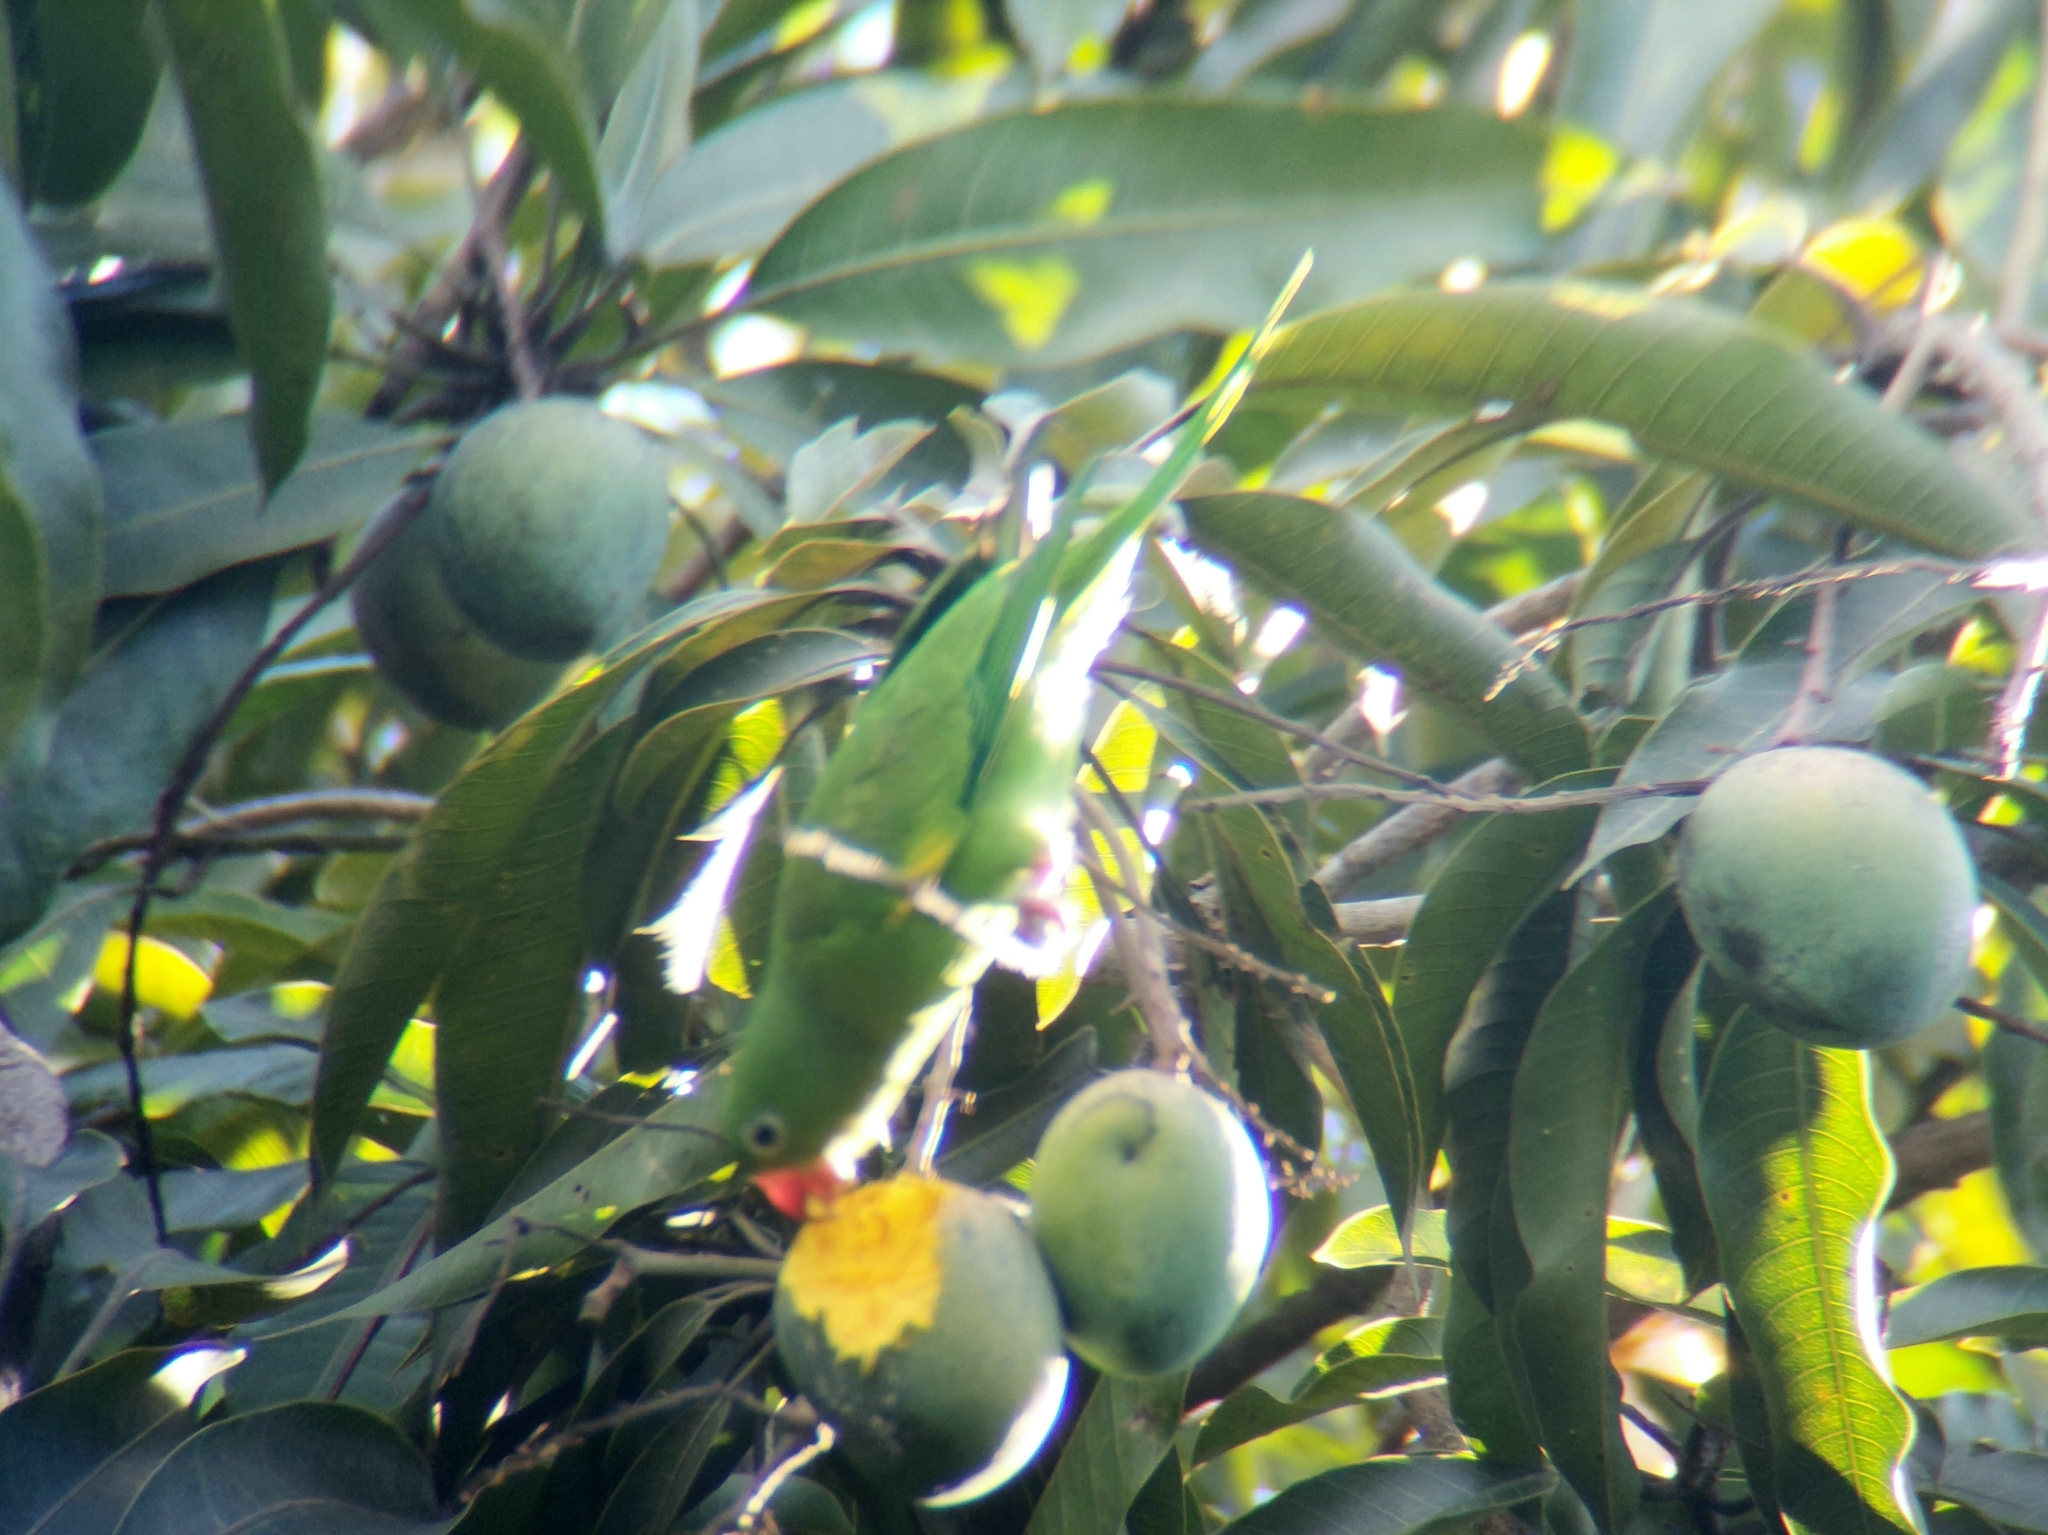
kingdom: Animalia
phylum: Chordata
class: Aves
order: Psittaciformes
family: Psittacidae
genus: Brotogeris
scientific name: Brotogeris chiriri
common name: Yellow-chevroned parakeet
